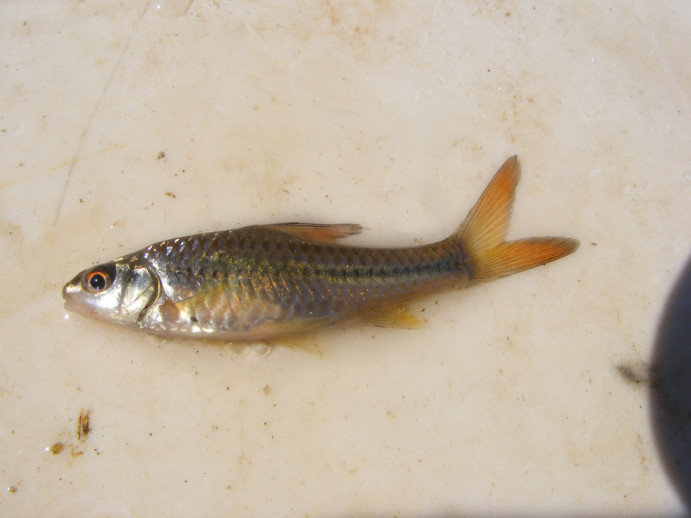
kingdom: Animalia
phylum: Chordata
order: Cypriniformes
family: Cyprinidae
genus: Enteromius
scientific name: Enteromius radiatus
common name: Beira barb
